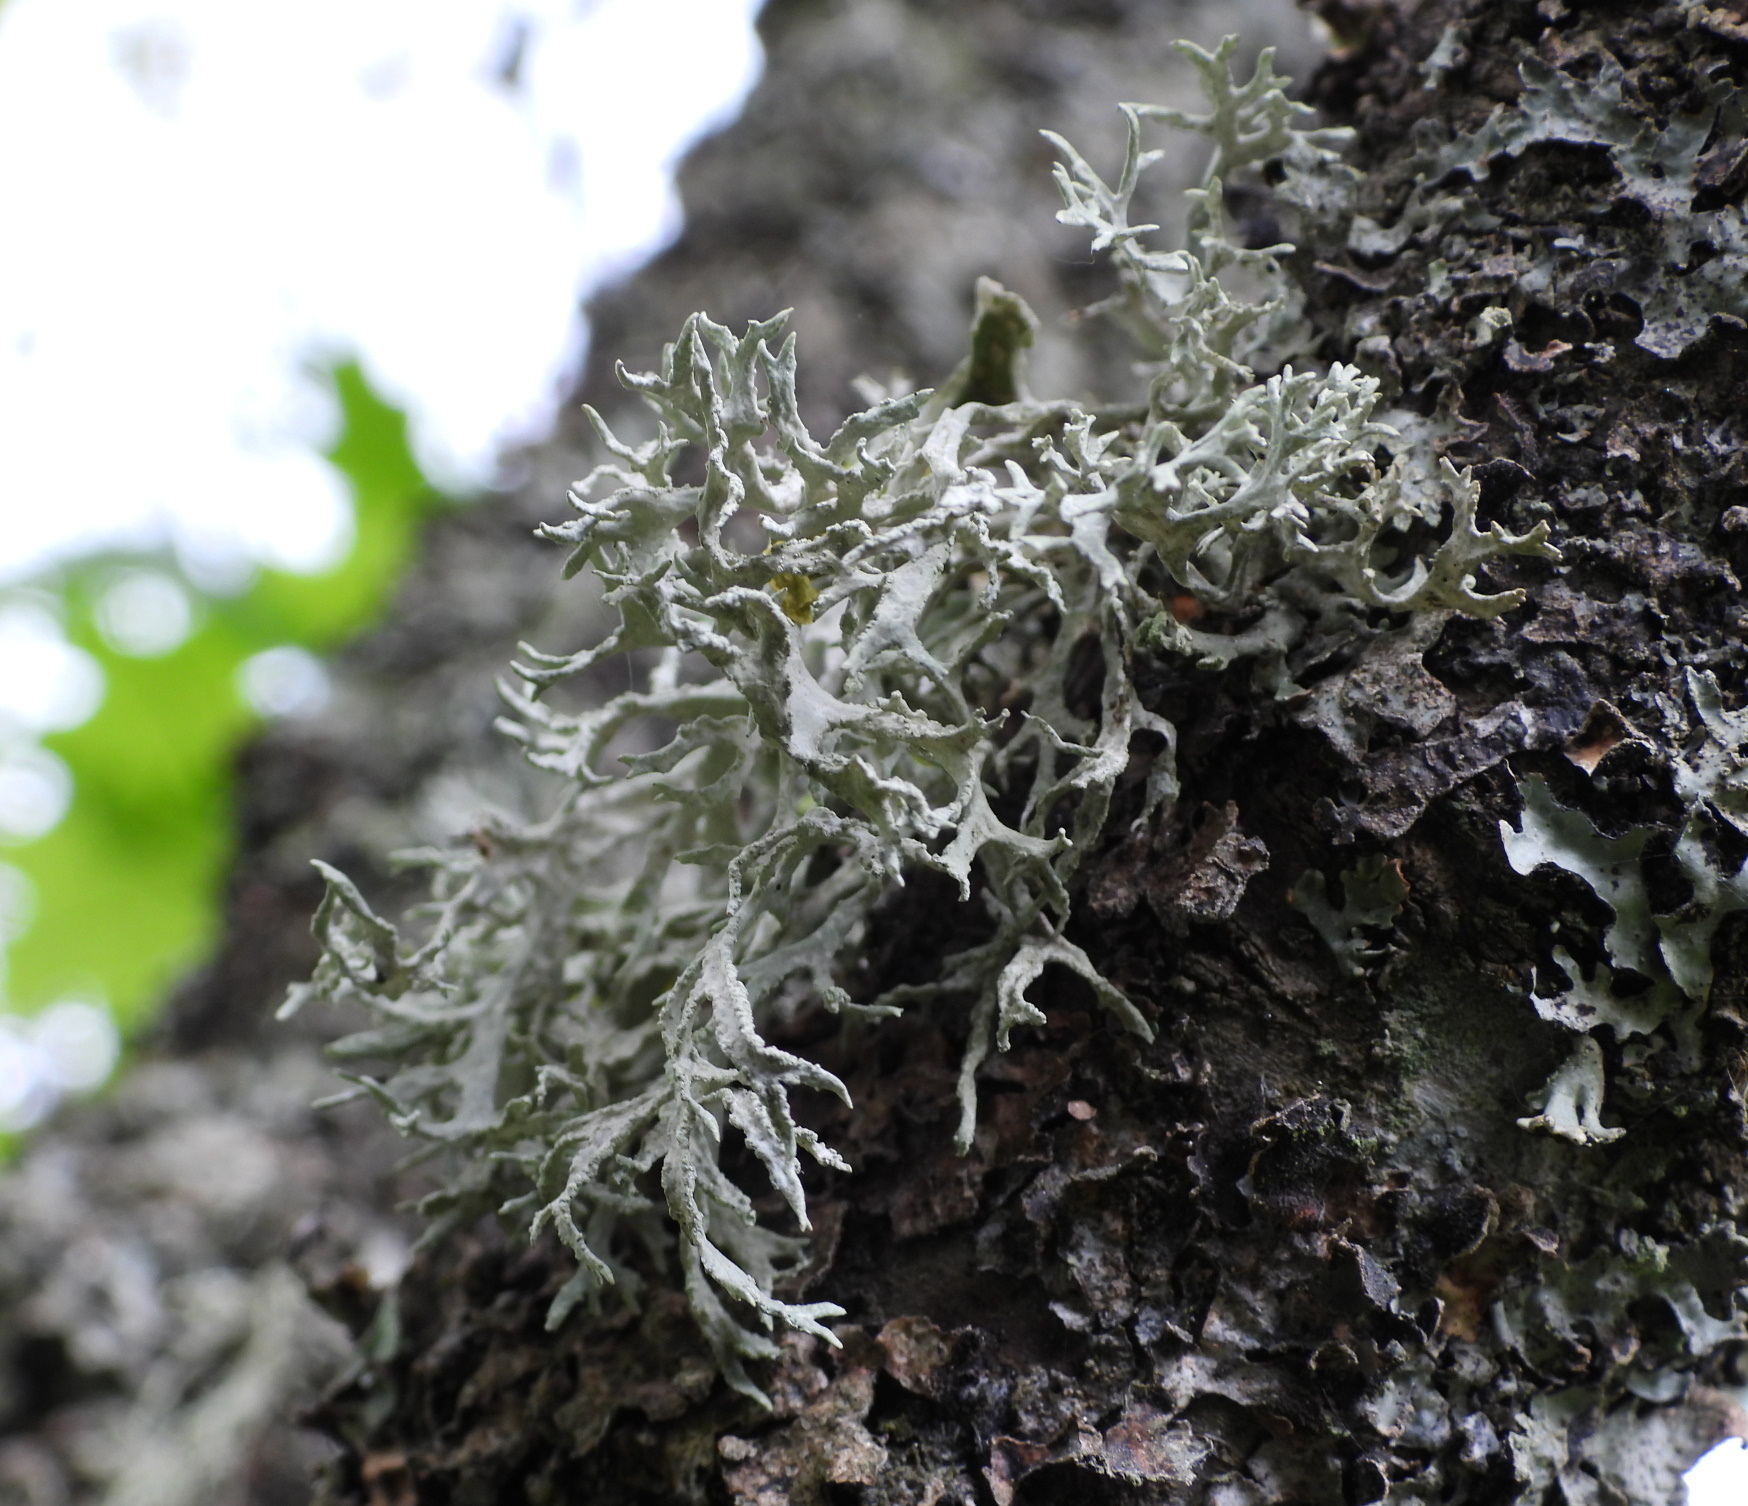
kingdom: Fungi
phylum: Ascomycota
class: Lecanoromycetes
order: Lecanorales
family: Parmeliaceae
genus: Evernia
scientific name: Evernia prunastri
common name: Oak moss
